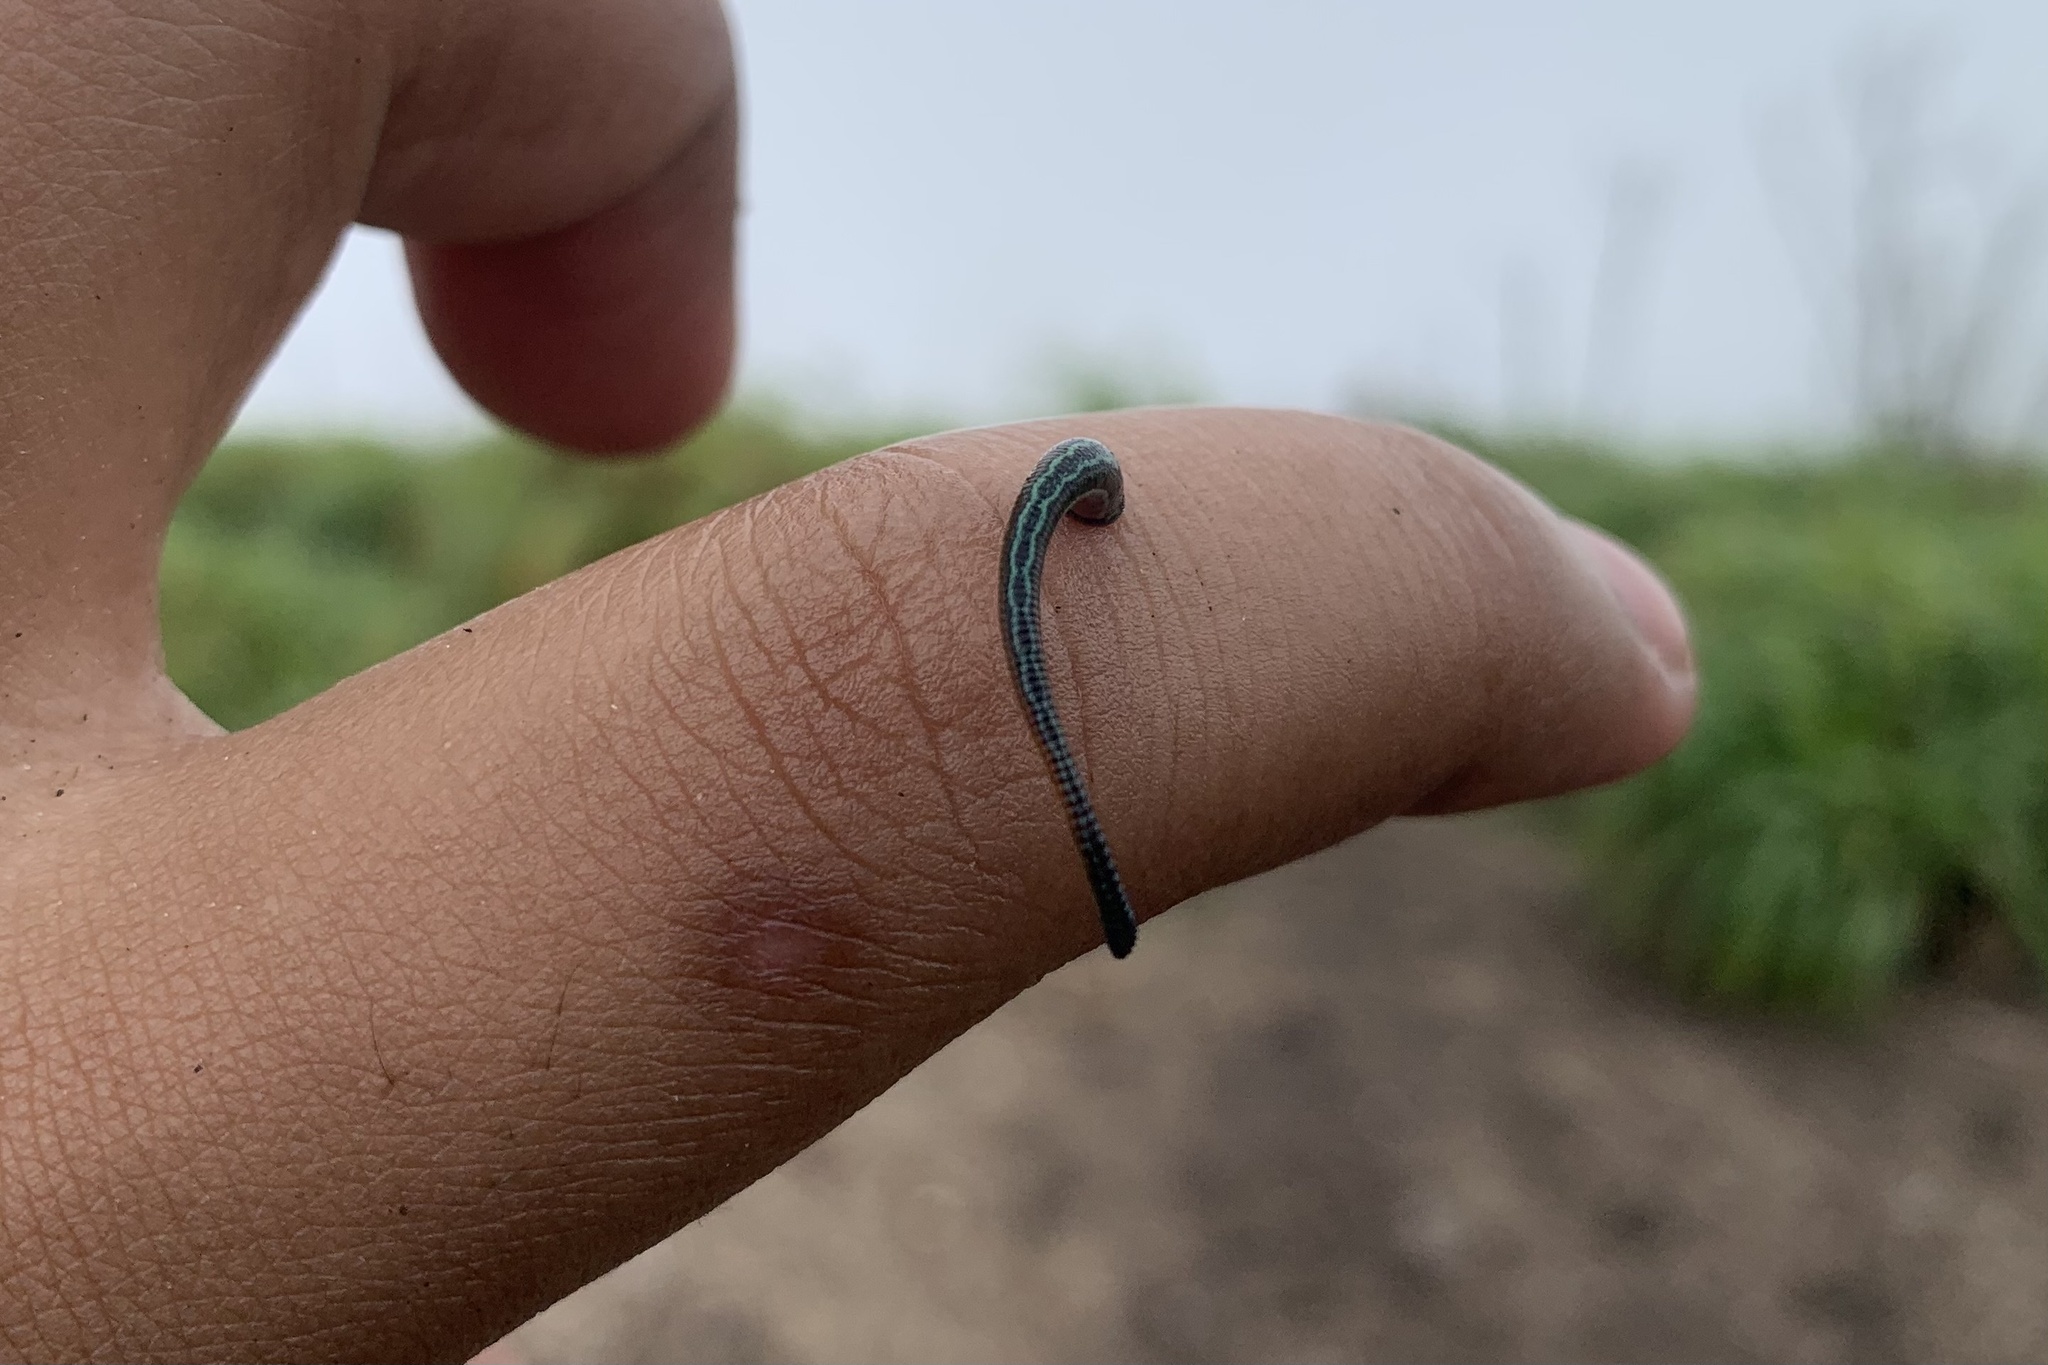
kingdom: Animalia
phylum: Annelida
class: Clitellata
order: Arhynchobdellida
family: Haemadipsidae
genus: Haemadipsa
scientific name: Haemadipsa crenata
